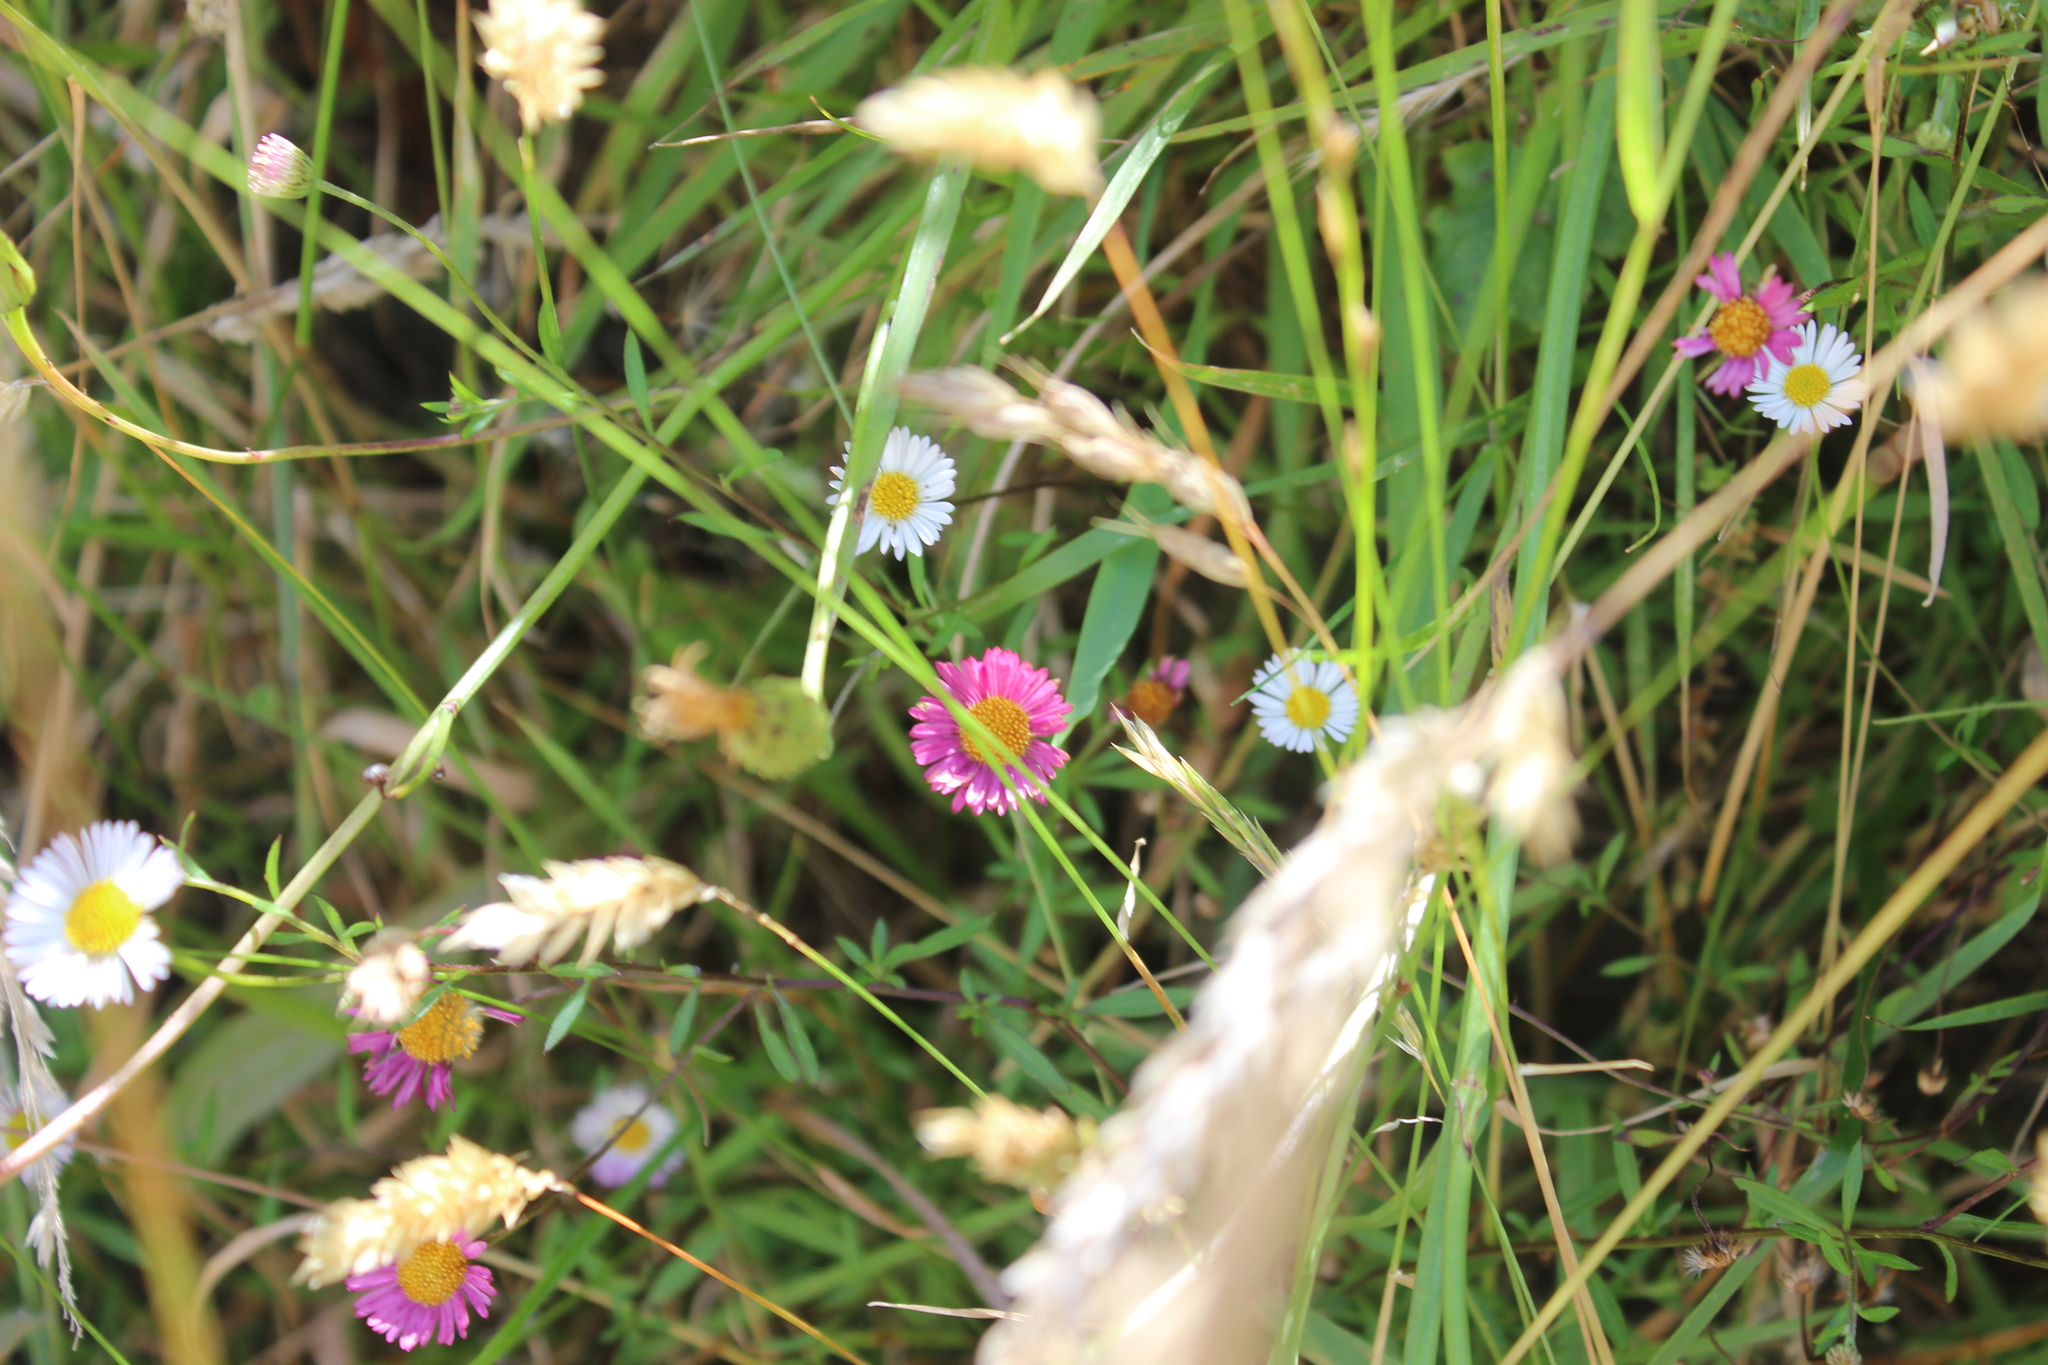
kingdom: Plantae
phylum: Tracheophyta
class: Magnoliopsida
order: Asterales
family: Asteraceae
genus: Erigeron
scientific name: Erigeron karvinskianus
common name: Mexican fleabane
